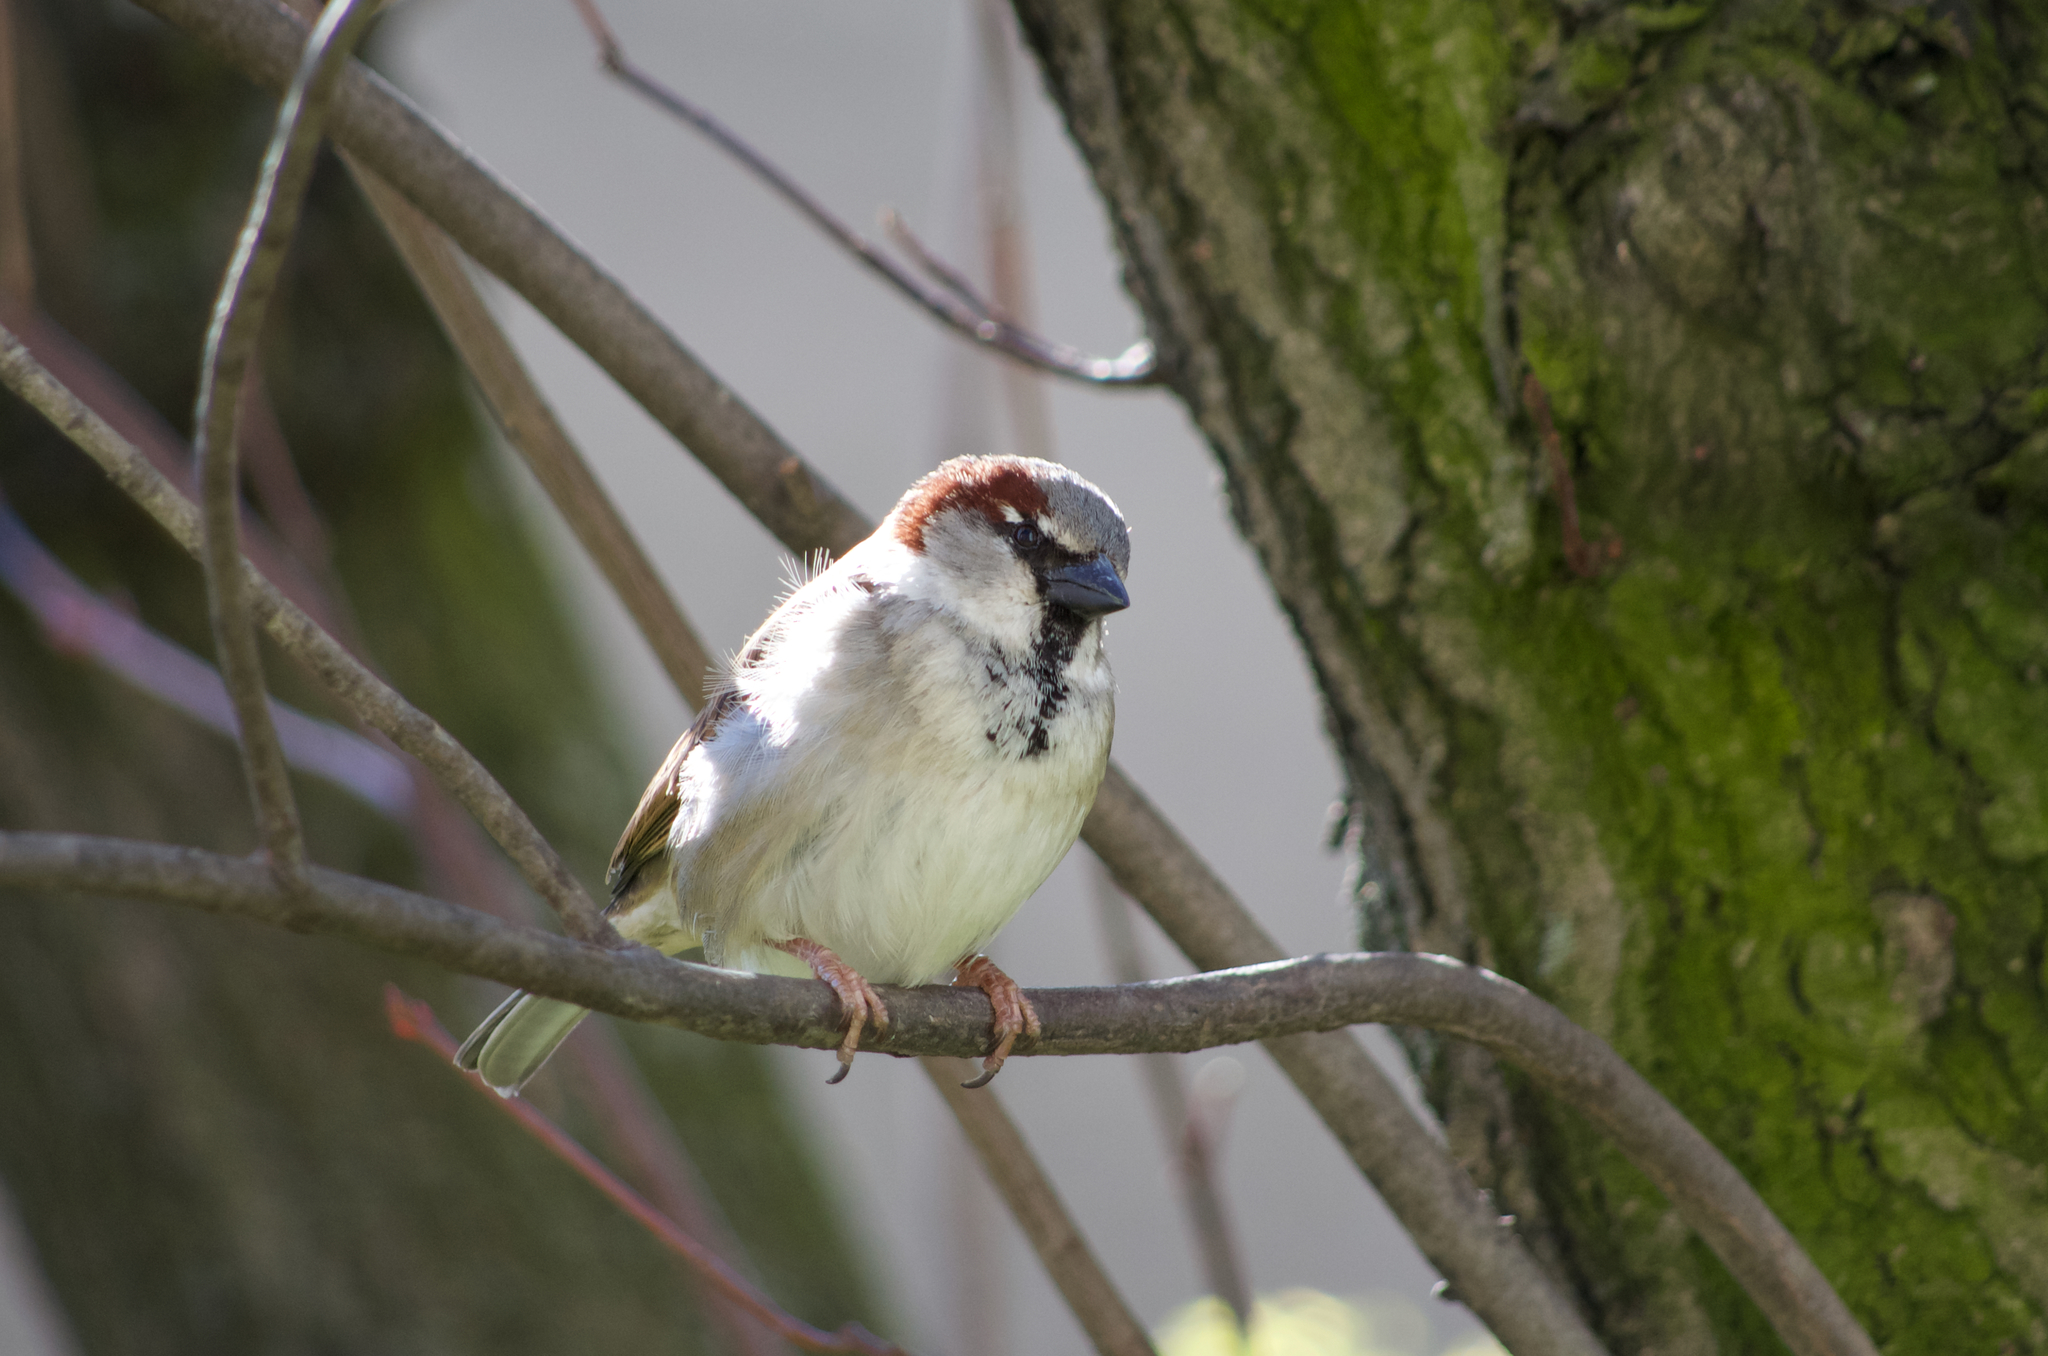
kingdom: Animalia
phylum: Chordata
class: Aves
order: Passeriformes
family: Passeridae
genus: Passer
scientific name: Passer domesticus
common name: House sparrow
